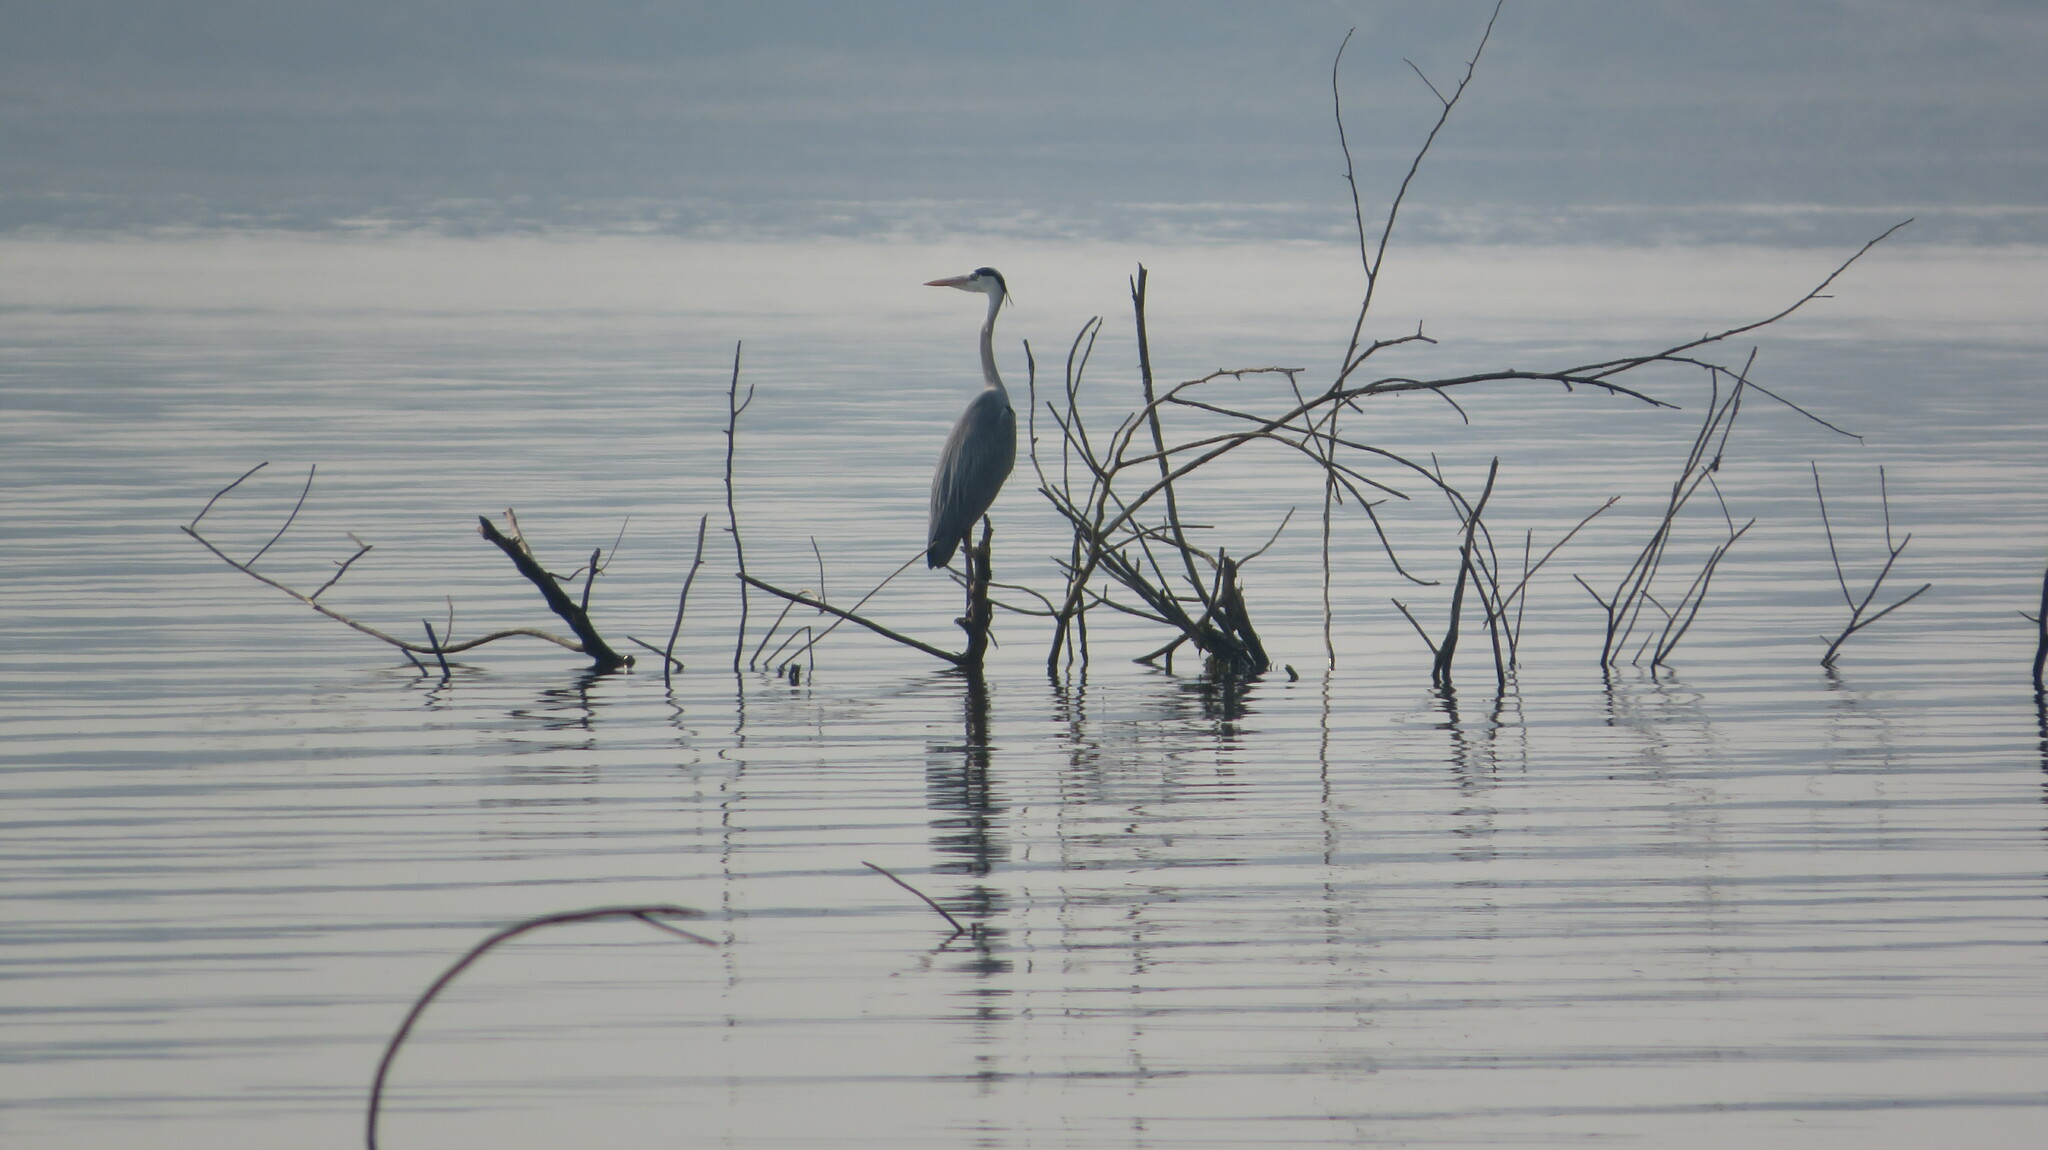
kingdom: Animalia
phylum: Chordata
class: Aves
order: Pelecaniformes
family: Ardeidae
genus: Ardea
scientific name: Ardea cinerea
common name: Grey heron
